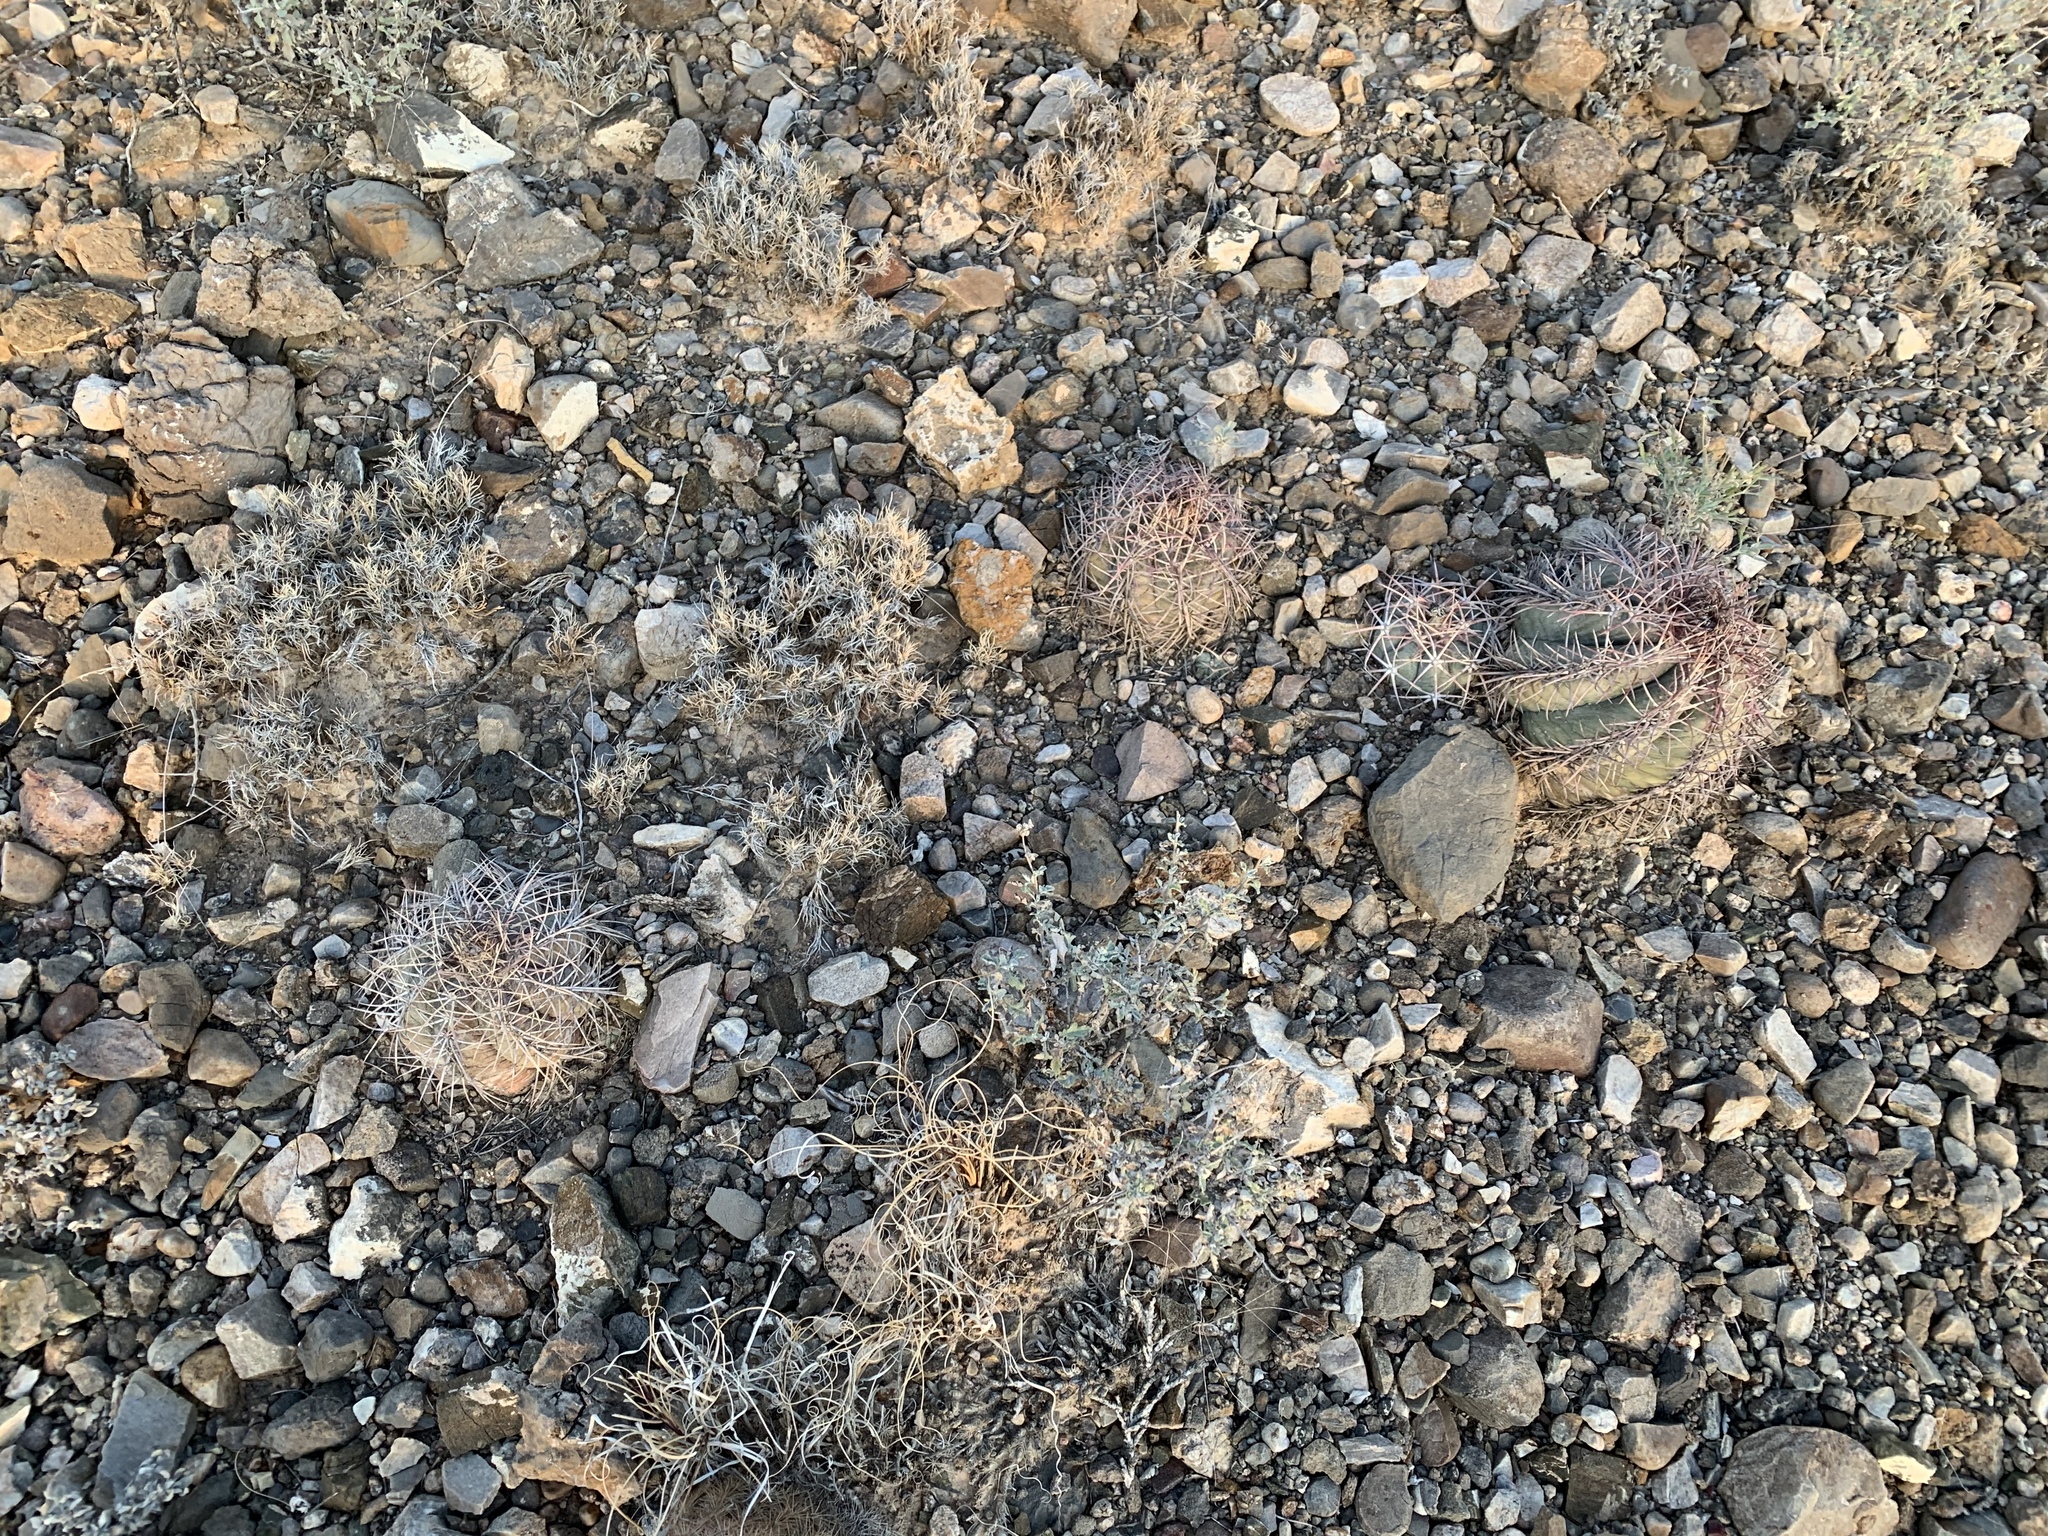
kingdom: Plantae
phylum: Tracheophyta
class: Magnoliopsida
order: Caryophyllales
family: Cactaceae
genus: Echinocactus
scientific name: Echinocactus horizonthalonius
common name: Devilshead
